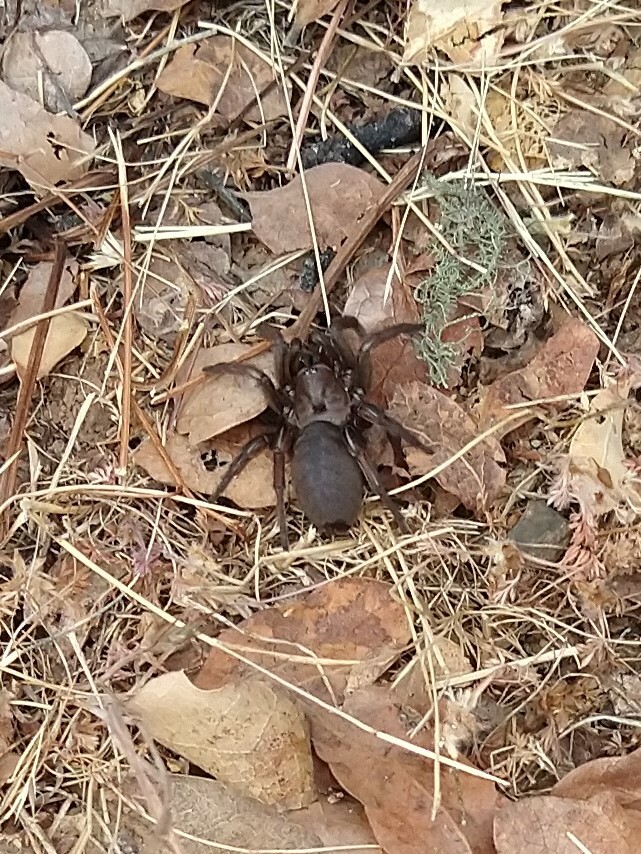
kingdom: Animalia
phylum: Arthropoda
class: Arachnida
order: Araneae
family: Euctenizidae
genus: Aptostichus
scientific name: Aptostichus barackobamai
